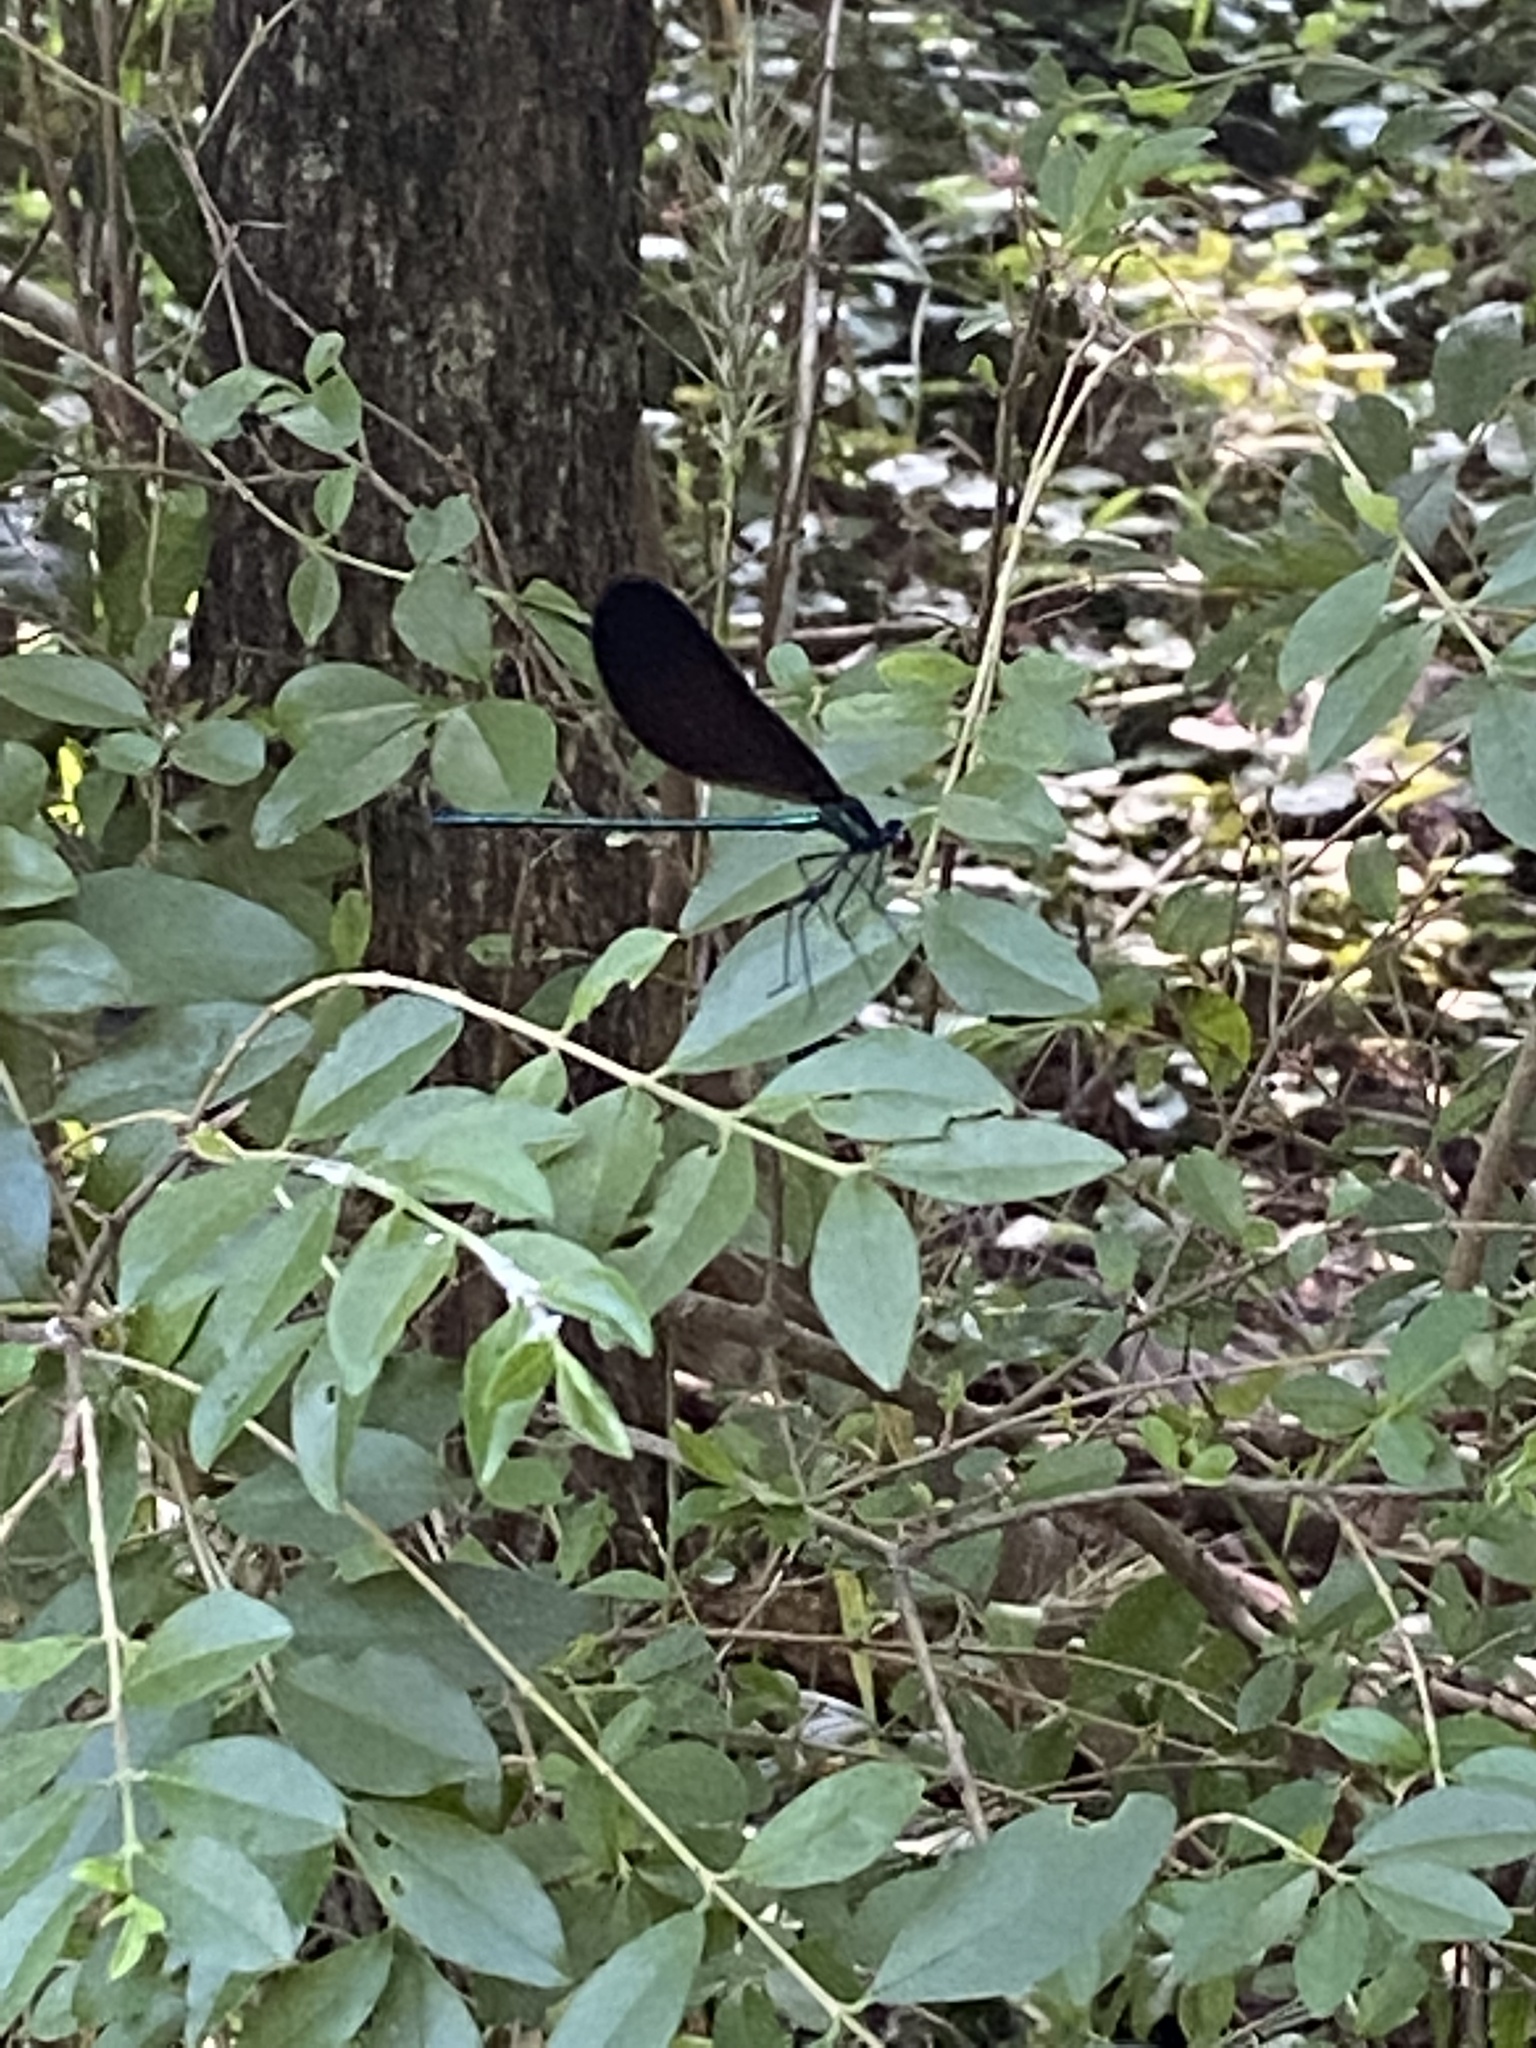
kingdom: Animalia
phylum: Arthropoda
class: Insecta
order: Odonata
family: Calopterygidae
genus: Calopteryx
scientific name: Calopteryx maculata
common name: Ebony jewelwing
